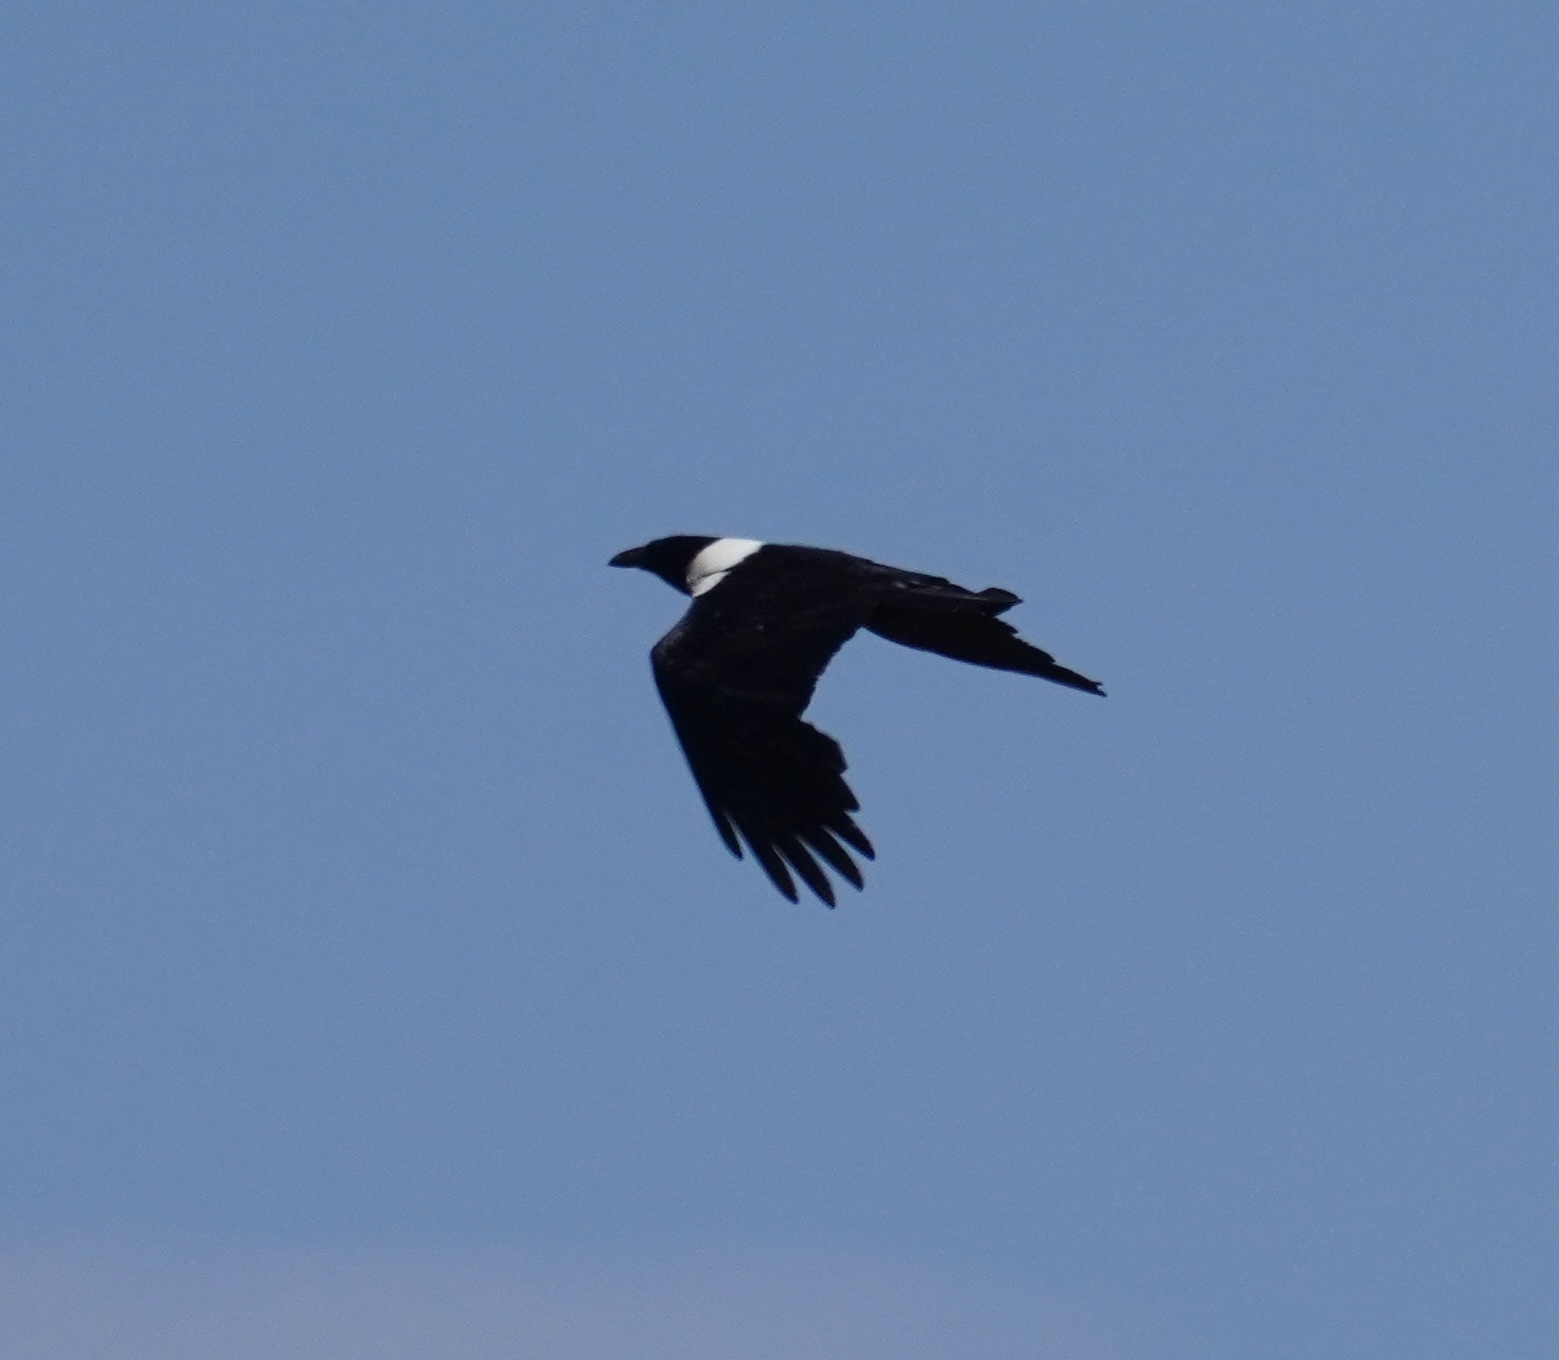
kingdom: Animalia
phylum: Chordata
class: Aves
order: Passeriformes
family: Corvidae
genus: Corvus
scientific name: Corvus albus
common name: Pied crow
